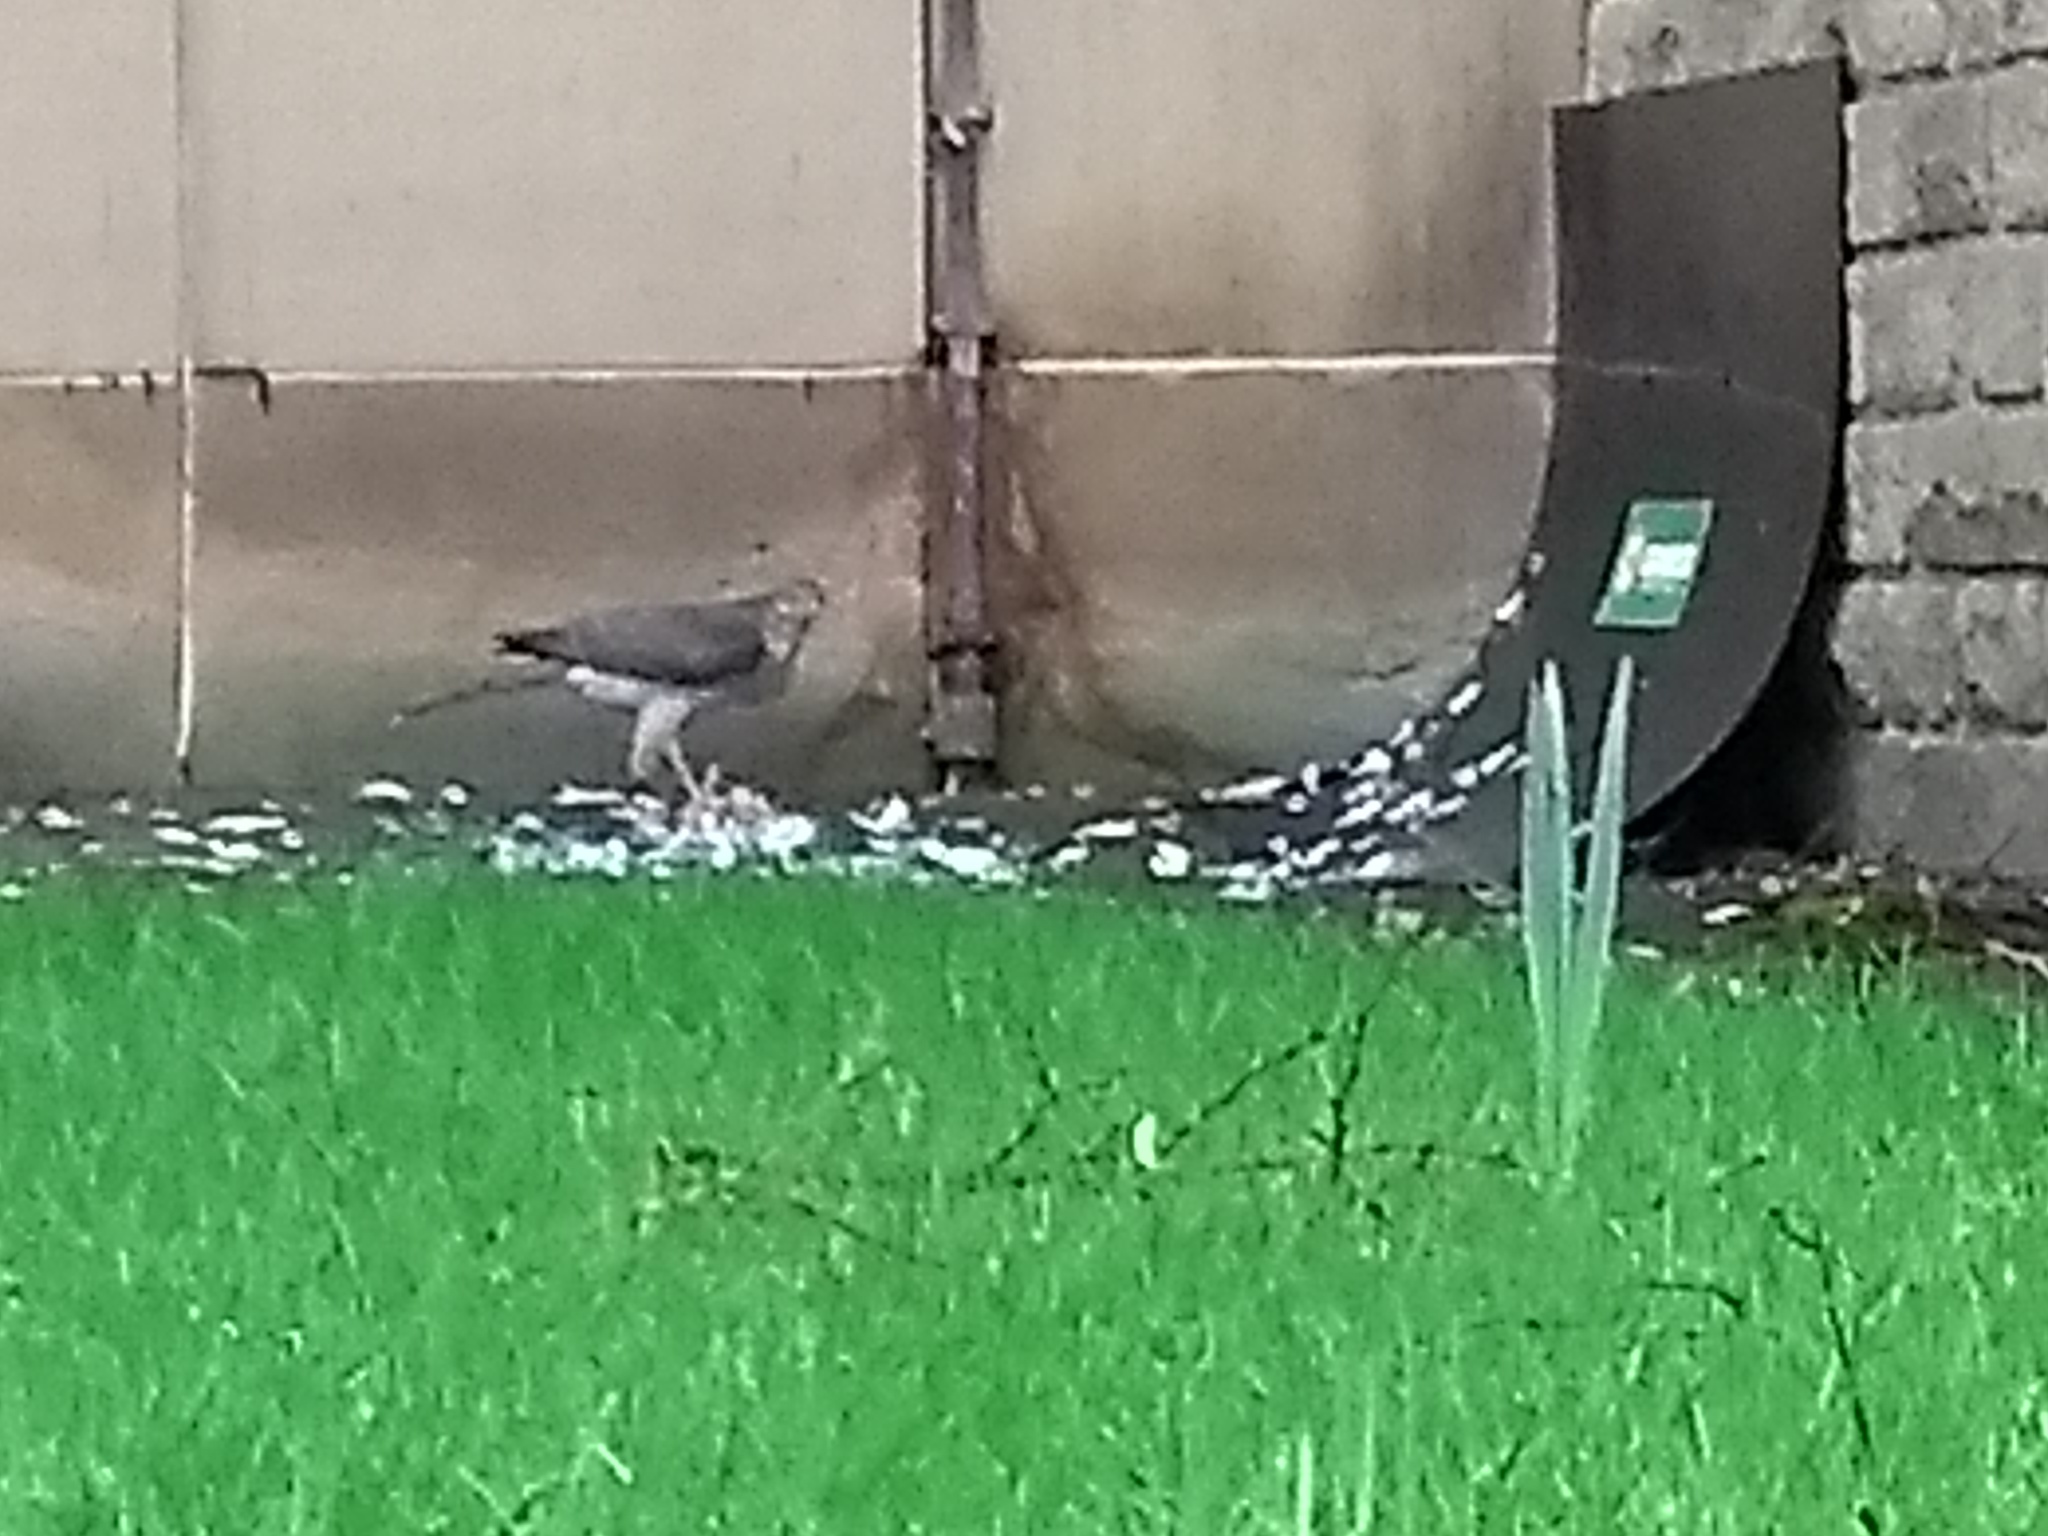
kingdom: Animalia
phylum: Chordata
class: Aves
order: Accipitriformes
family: Accipitridae
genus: Accipiter
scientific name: Accipiter nisus
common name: Eurasian sparrowhawk
